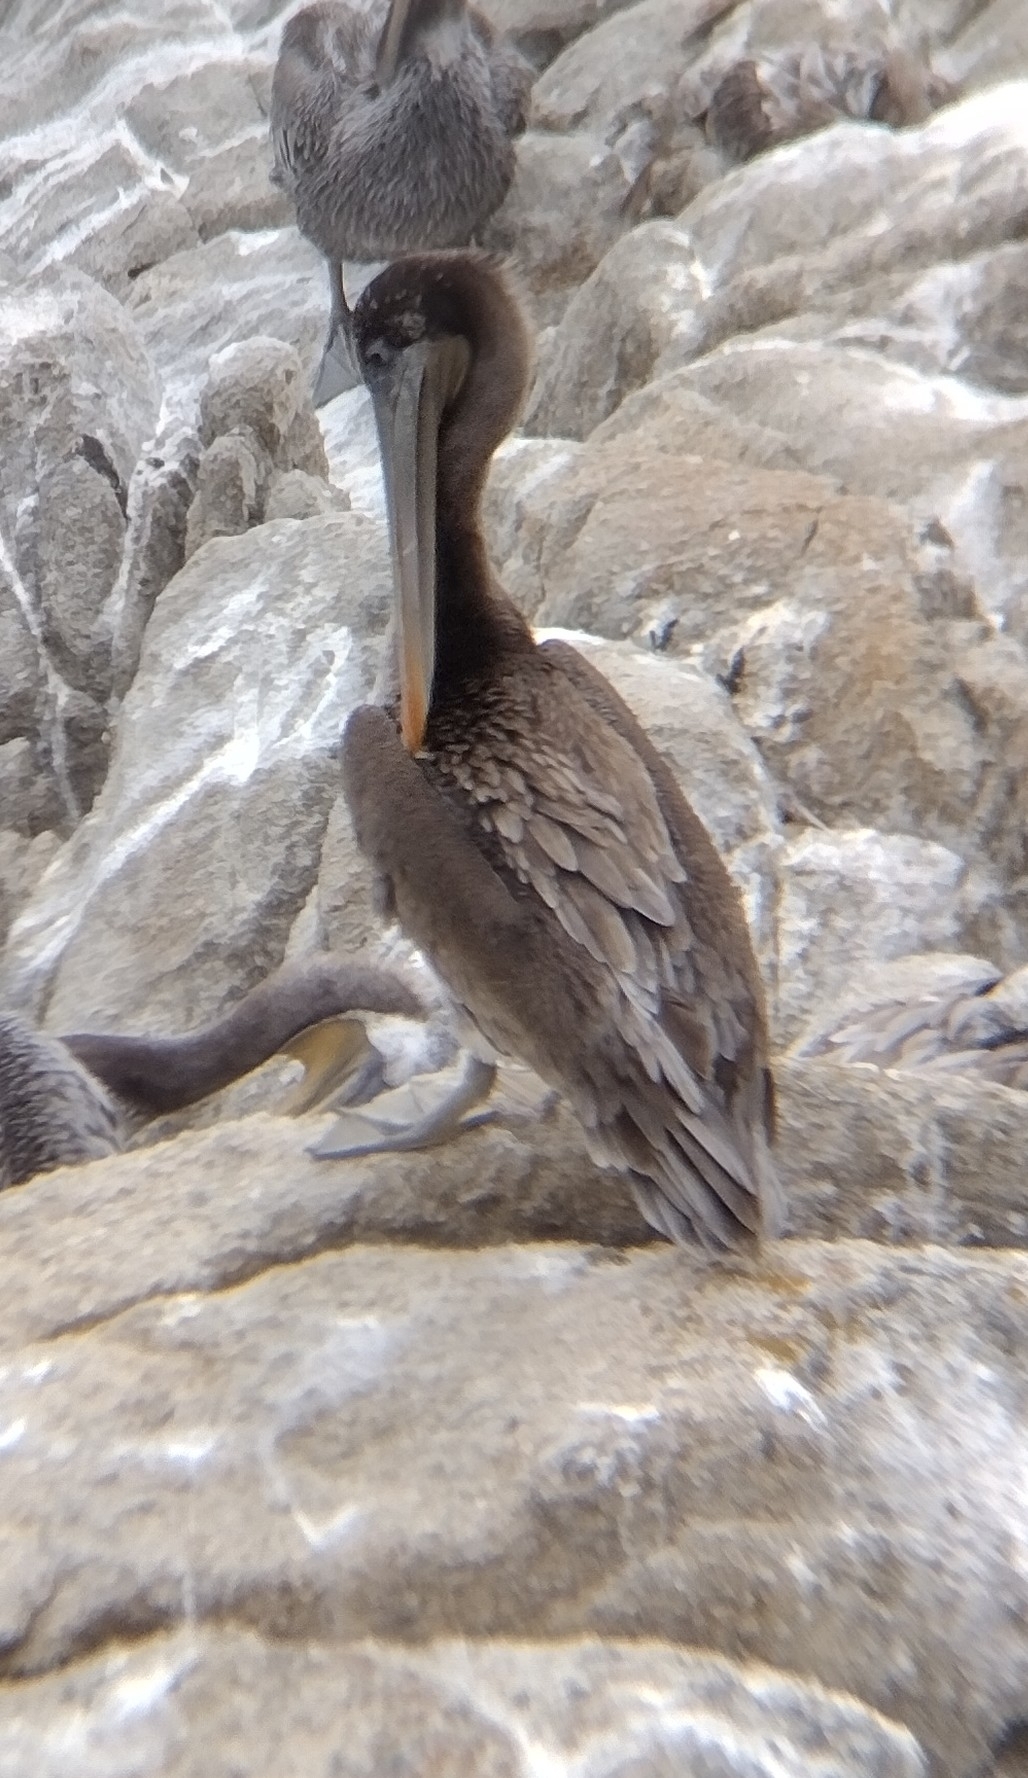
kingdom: Animalia
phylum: Chordata
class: Aves
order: Pelecaniformes
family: Pelecanidae
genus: Pelecanus
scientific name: Pelecanus occidentalis
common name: Brown pelican
